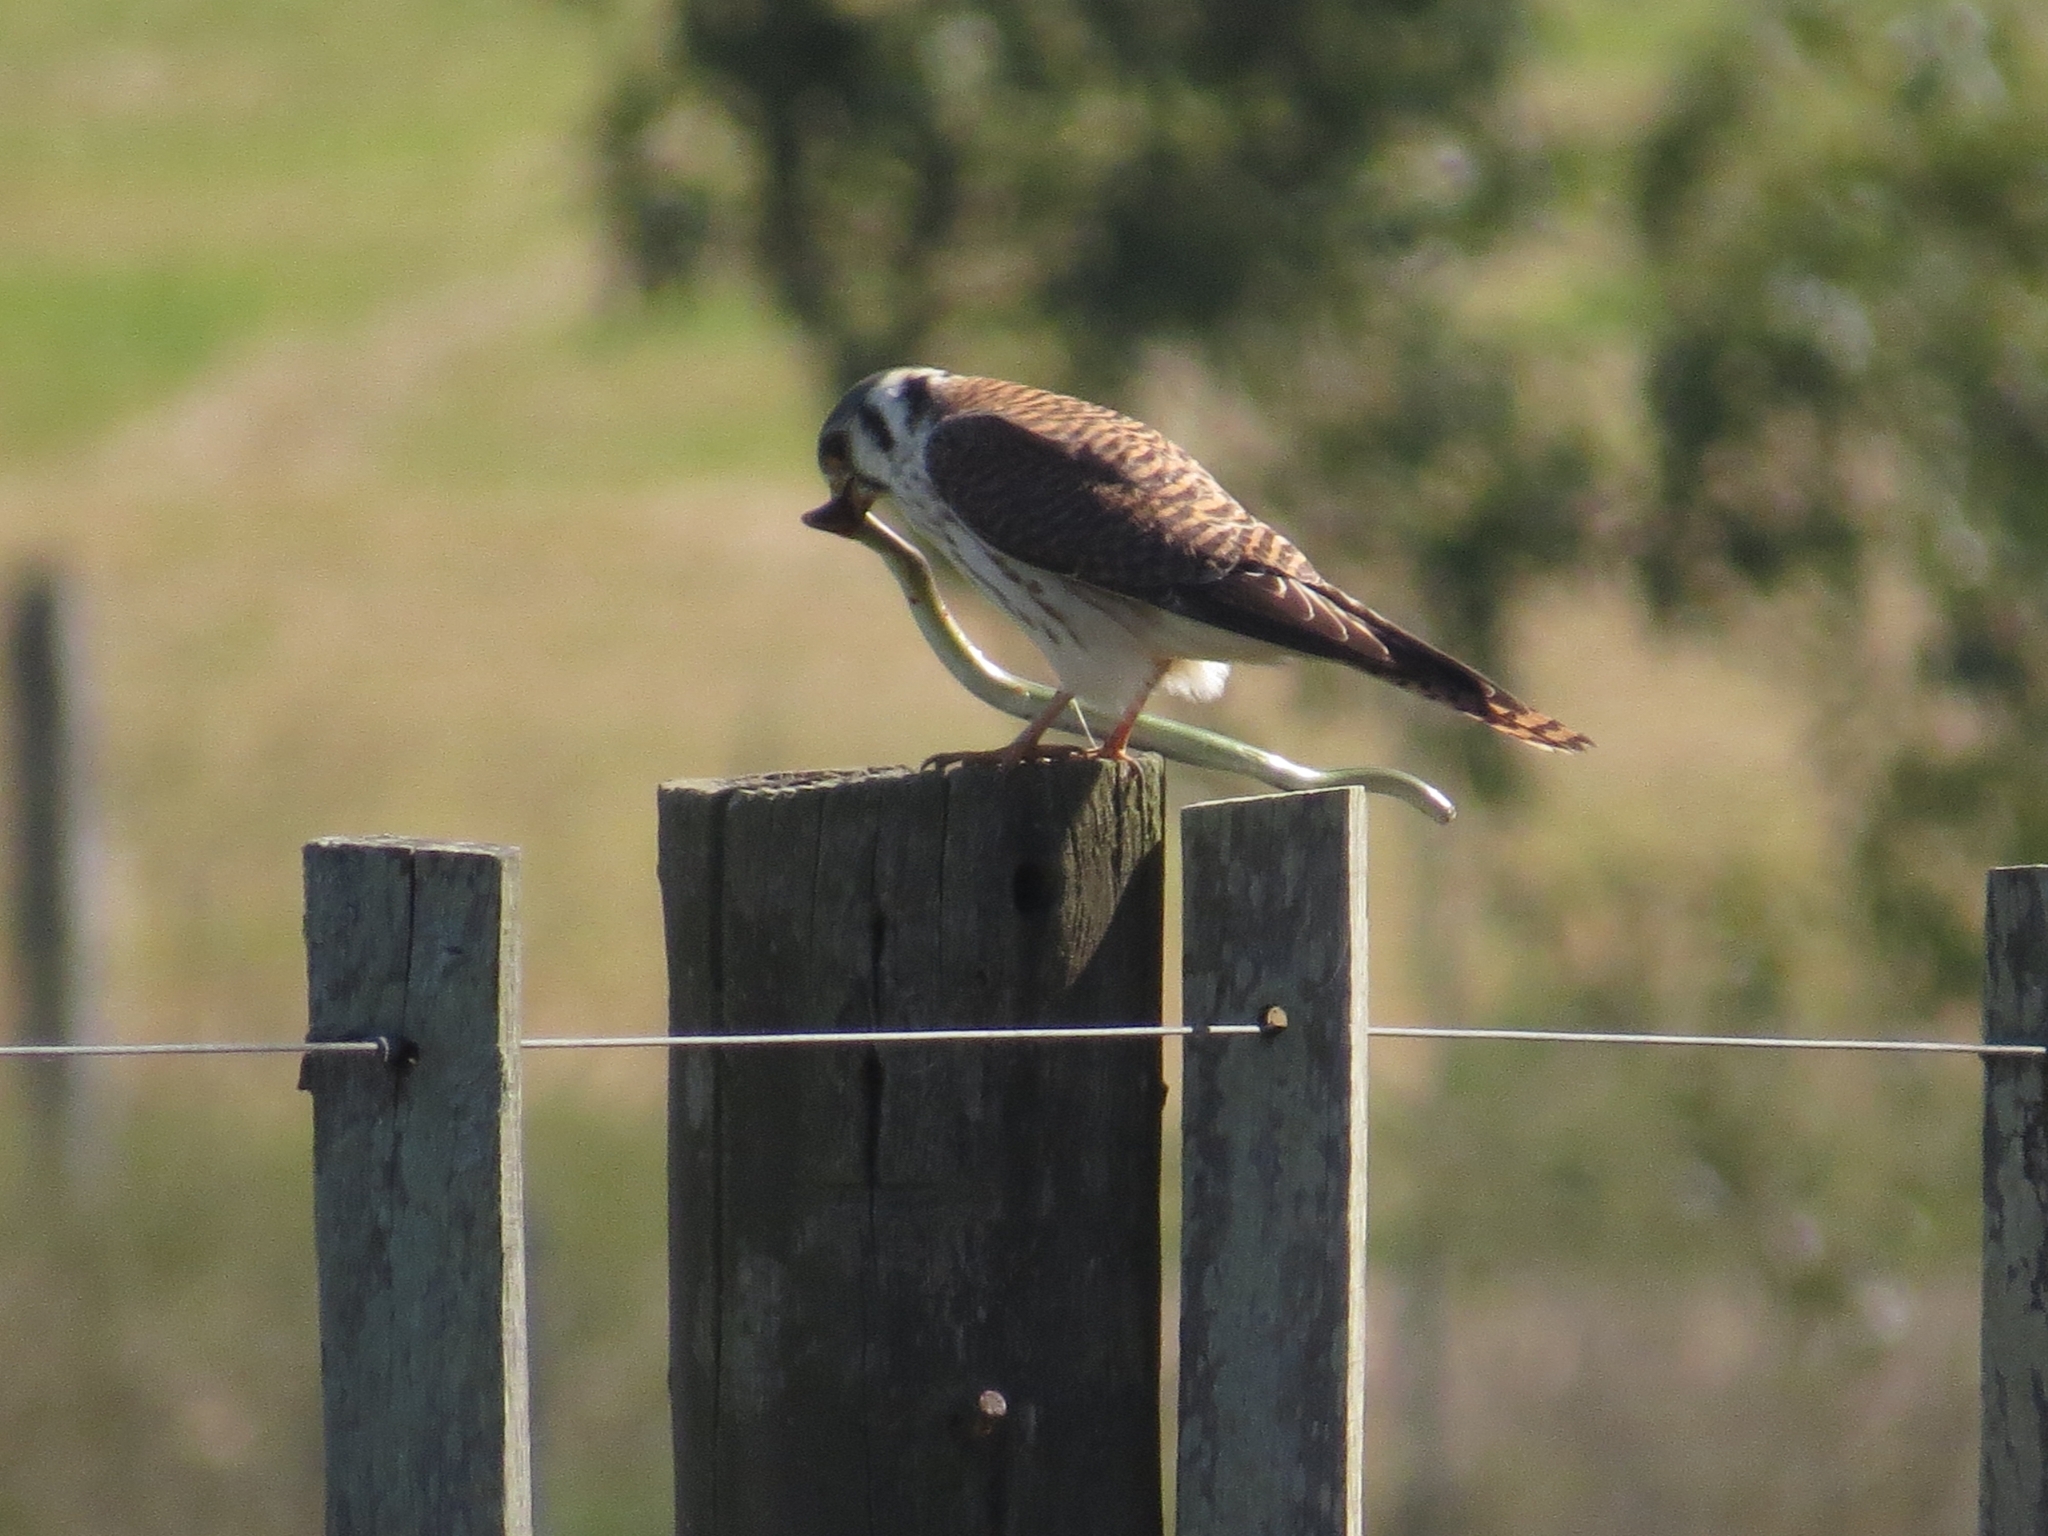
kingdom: Animalia
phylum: Chordata
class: Aves
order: Falconiformes
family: Falconidae
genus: Falco
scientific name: Falco sparverius
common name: American kestrel
